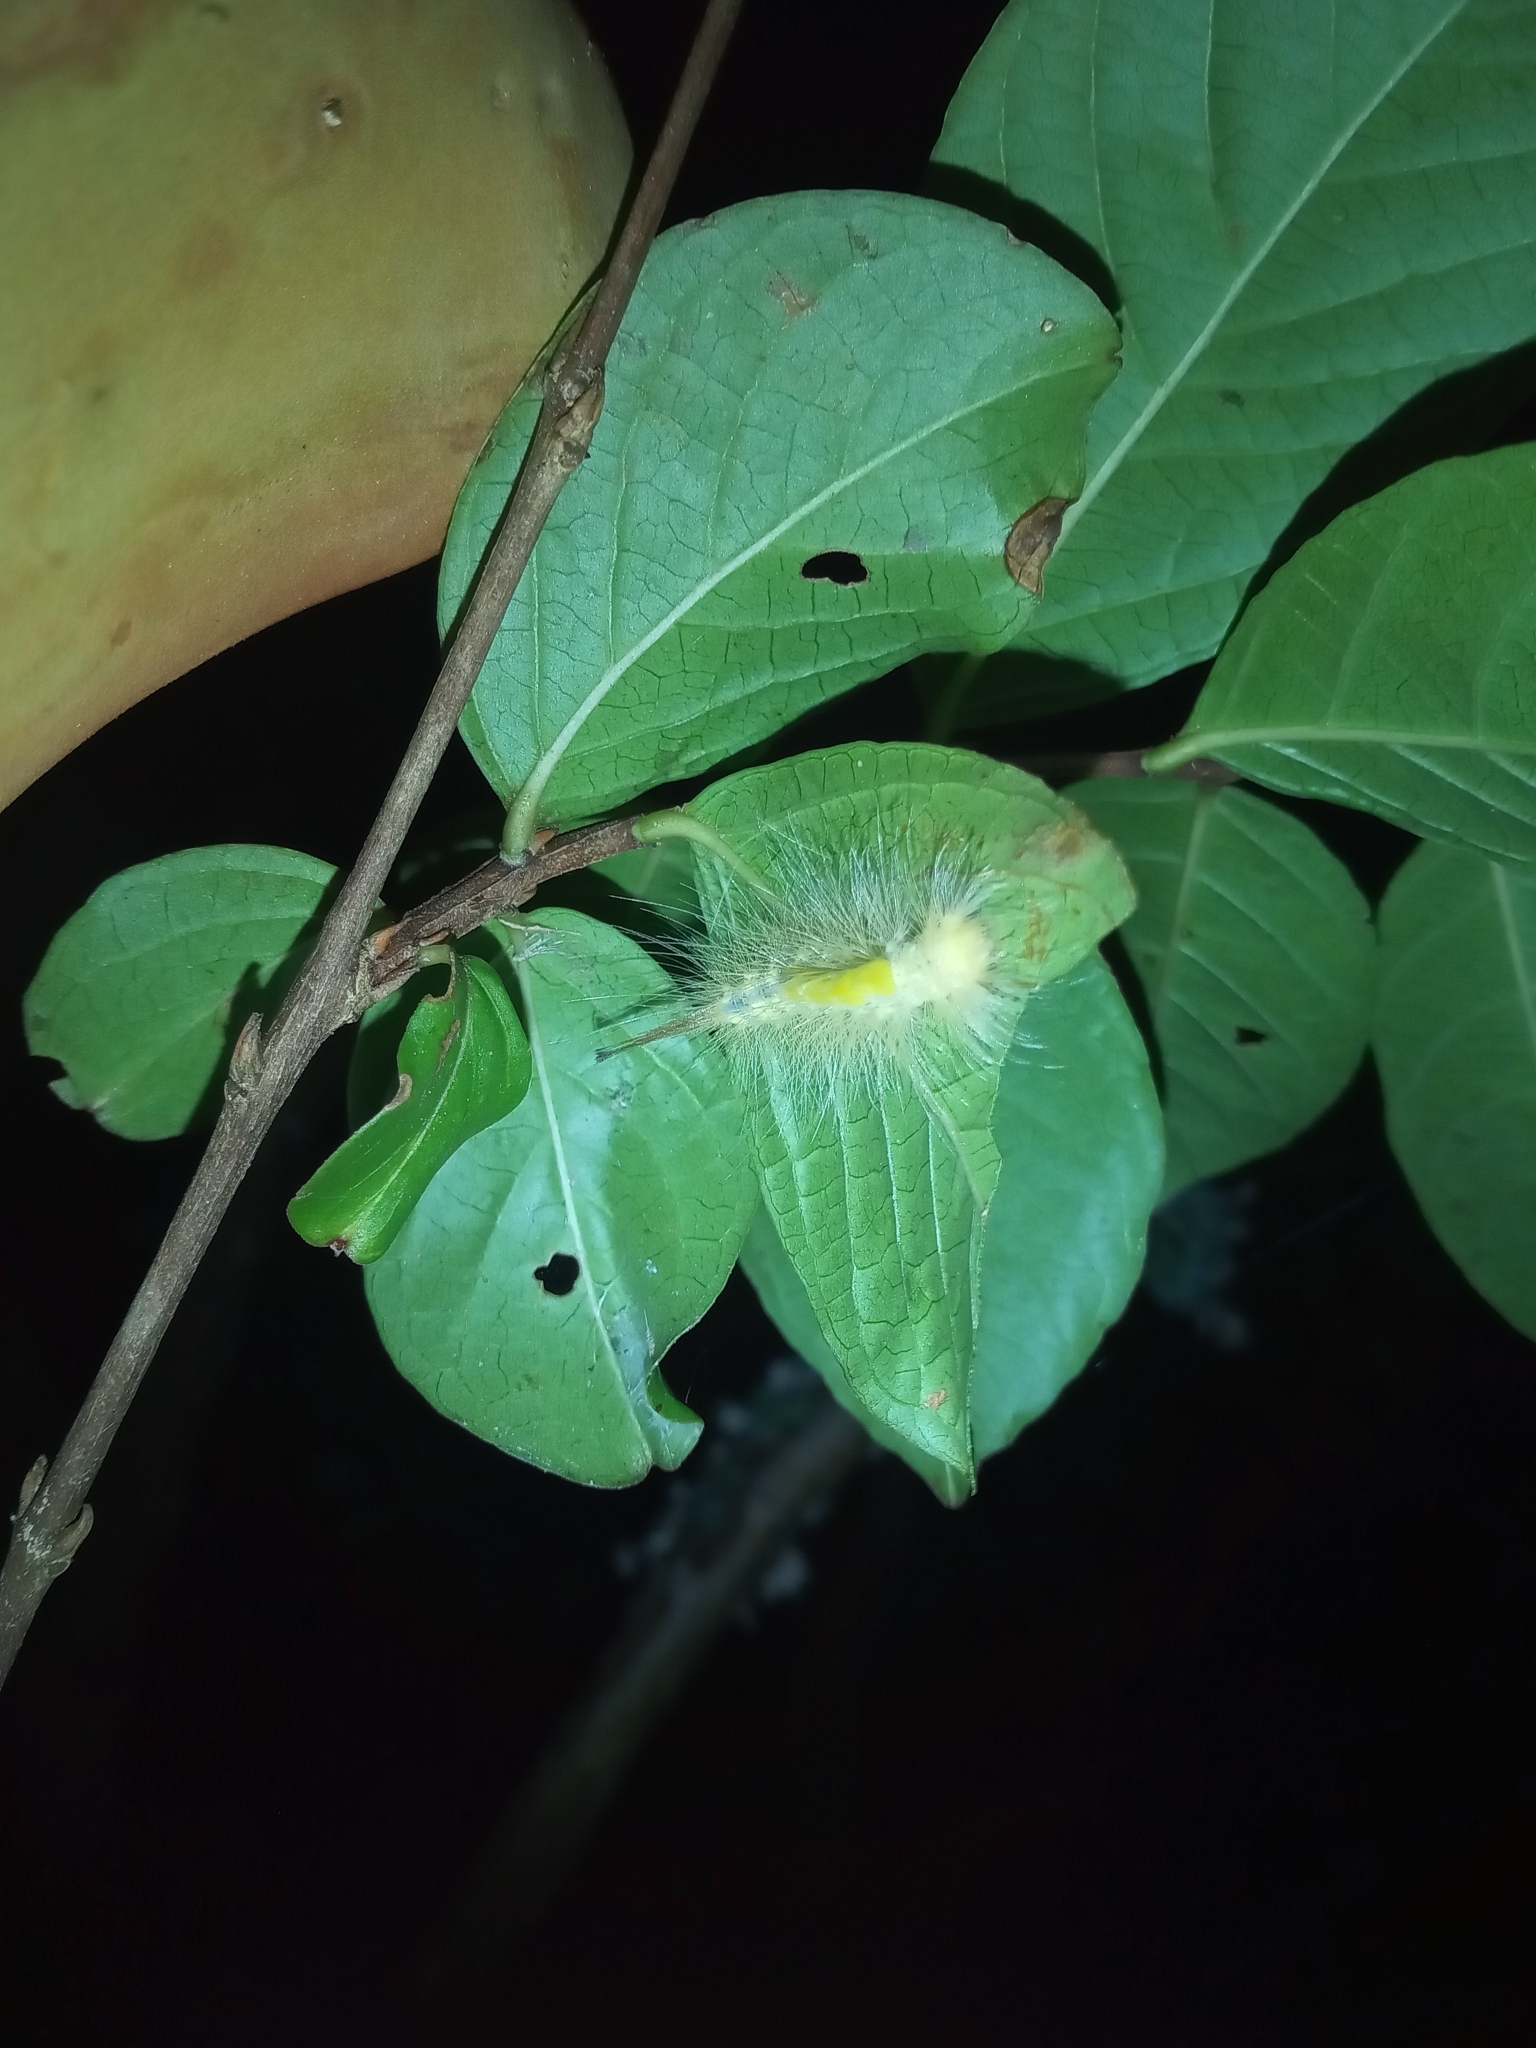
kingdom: Animalia
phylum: Arthropoda
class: Insecta
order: Lepidoptera
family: Erebidae
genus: Orgyia
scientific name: Orgyia definita
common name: Definite tussock moth
